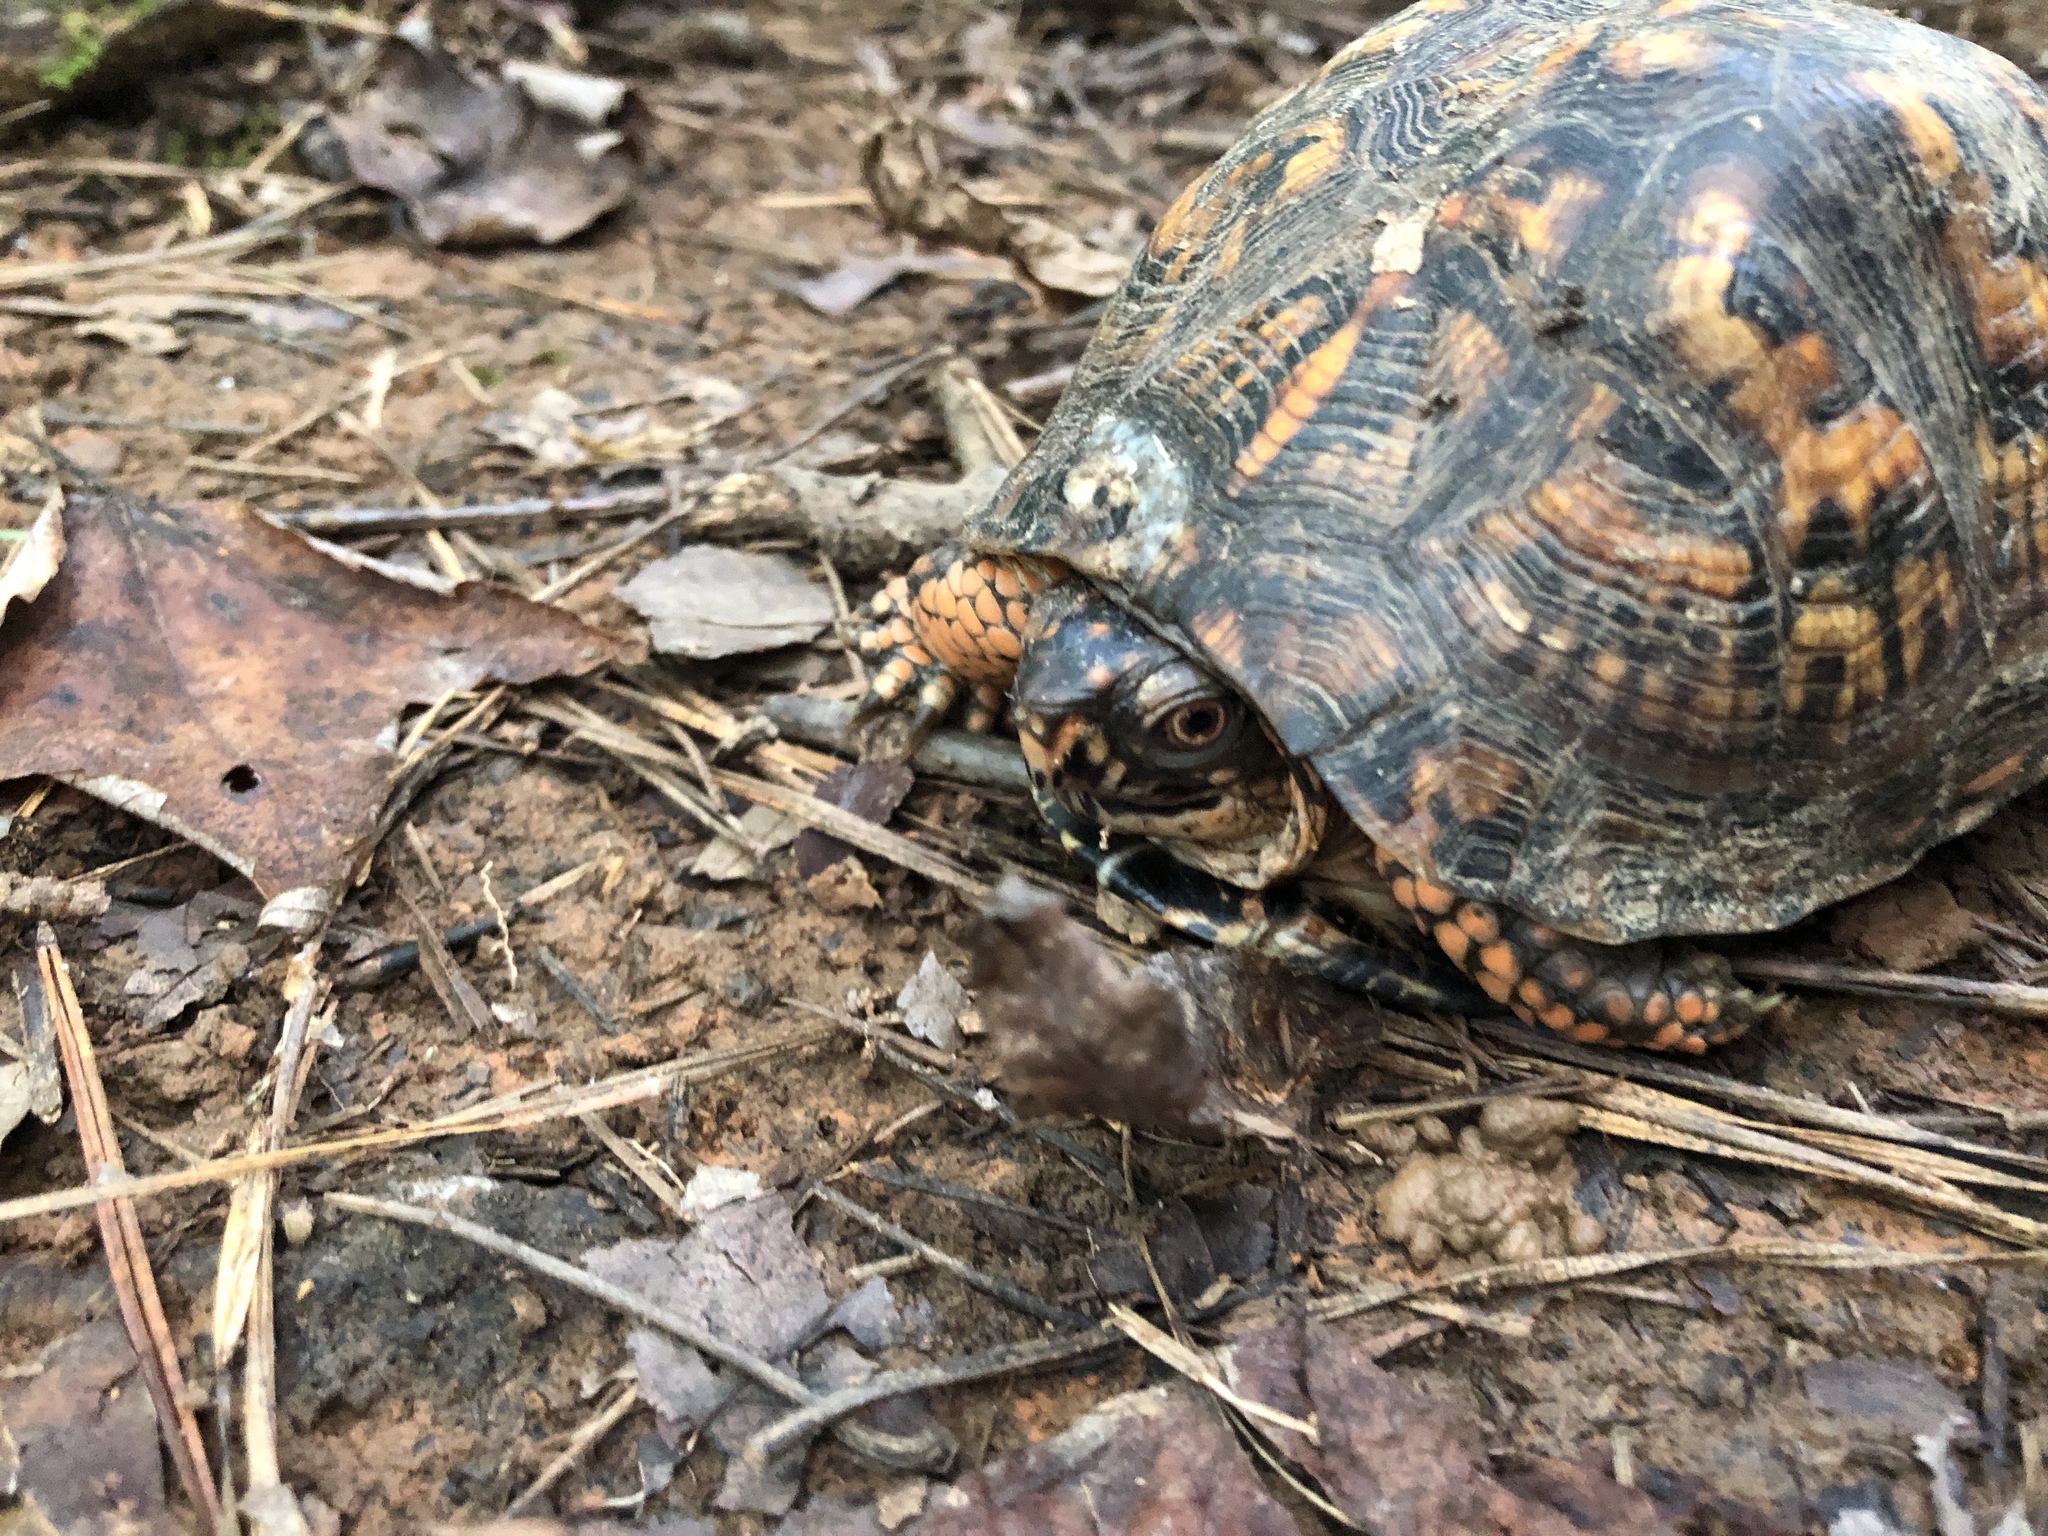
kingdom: Animalia
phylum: Chordata
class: Testudines
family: Emydidae
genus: Terrapene
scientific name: Terrapene carolina
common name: Common box turtle
